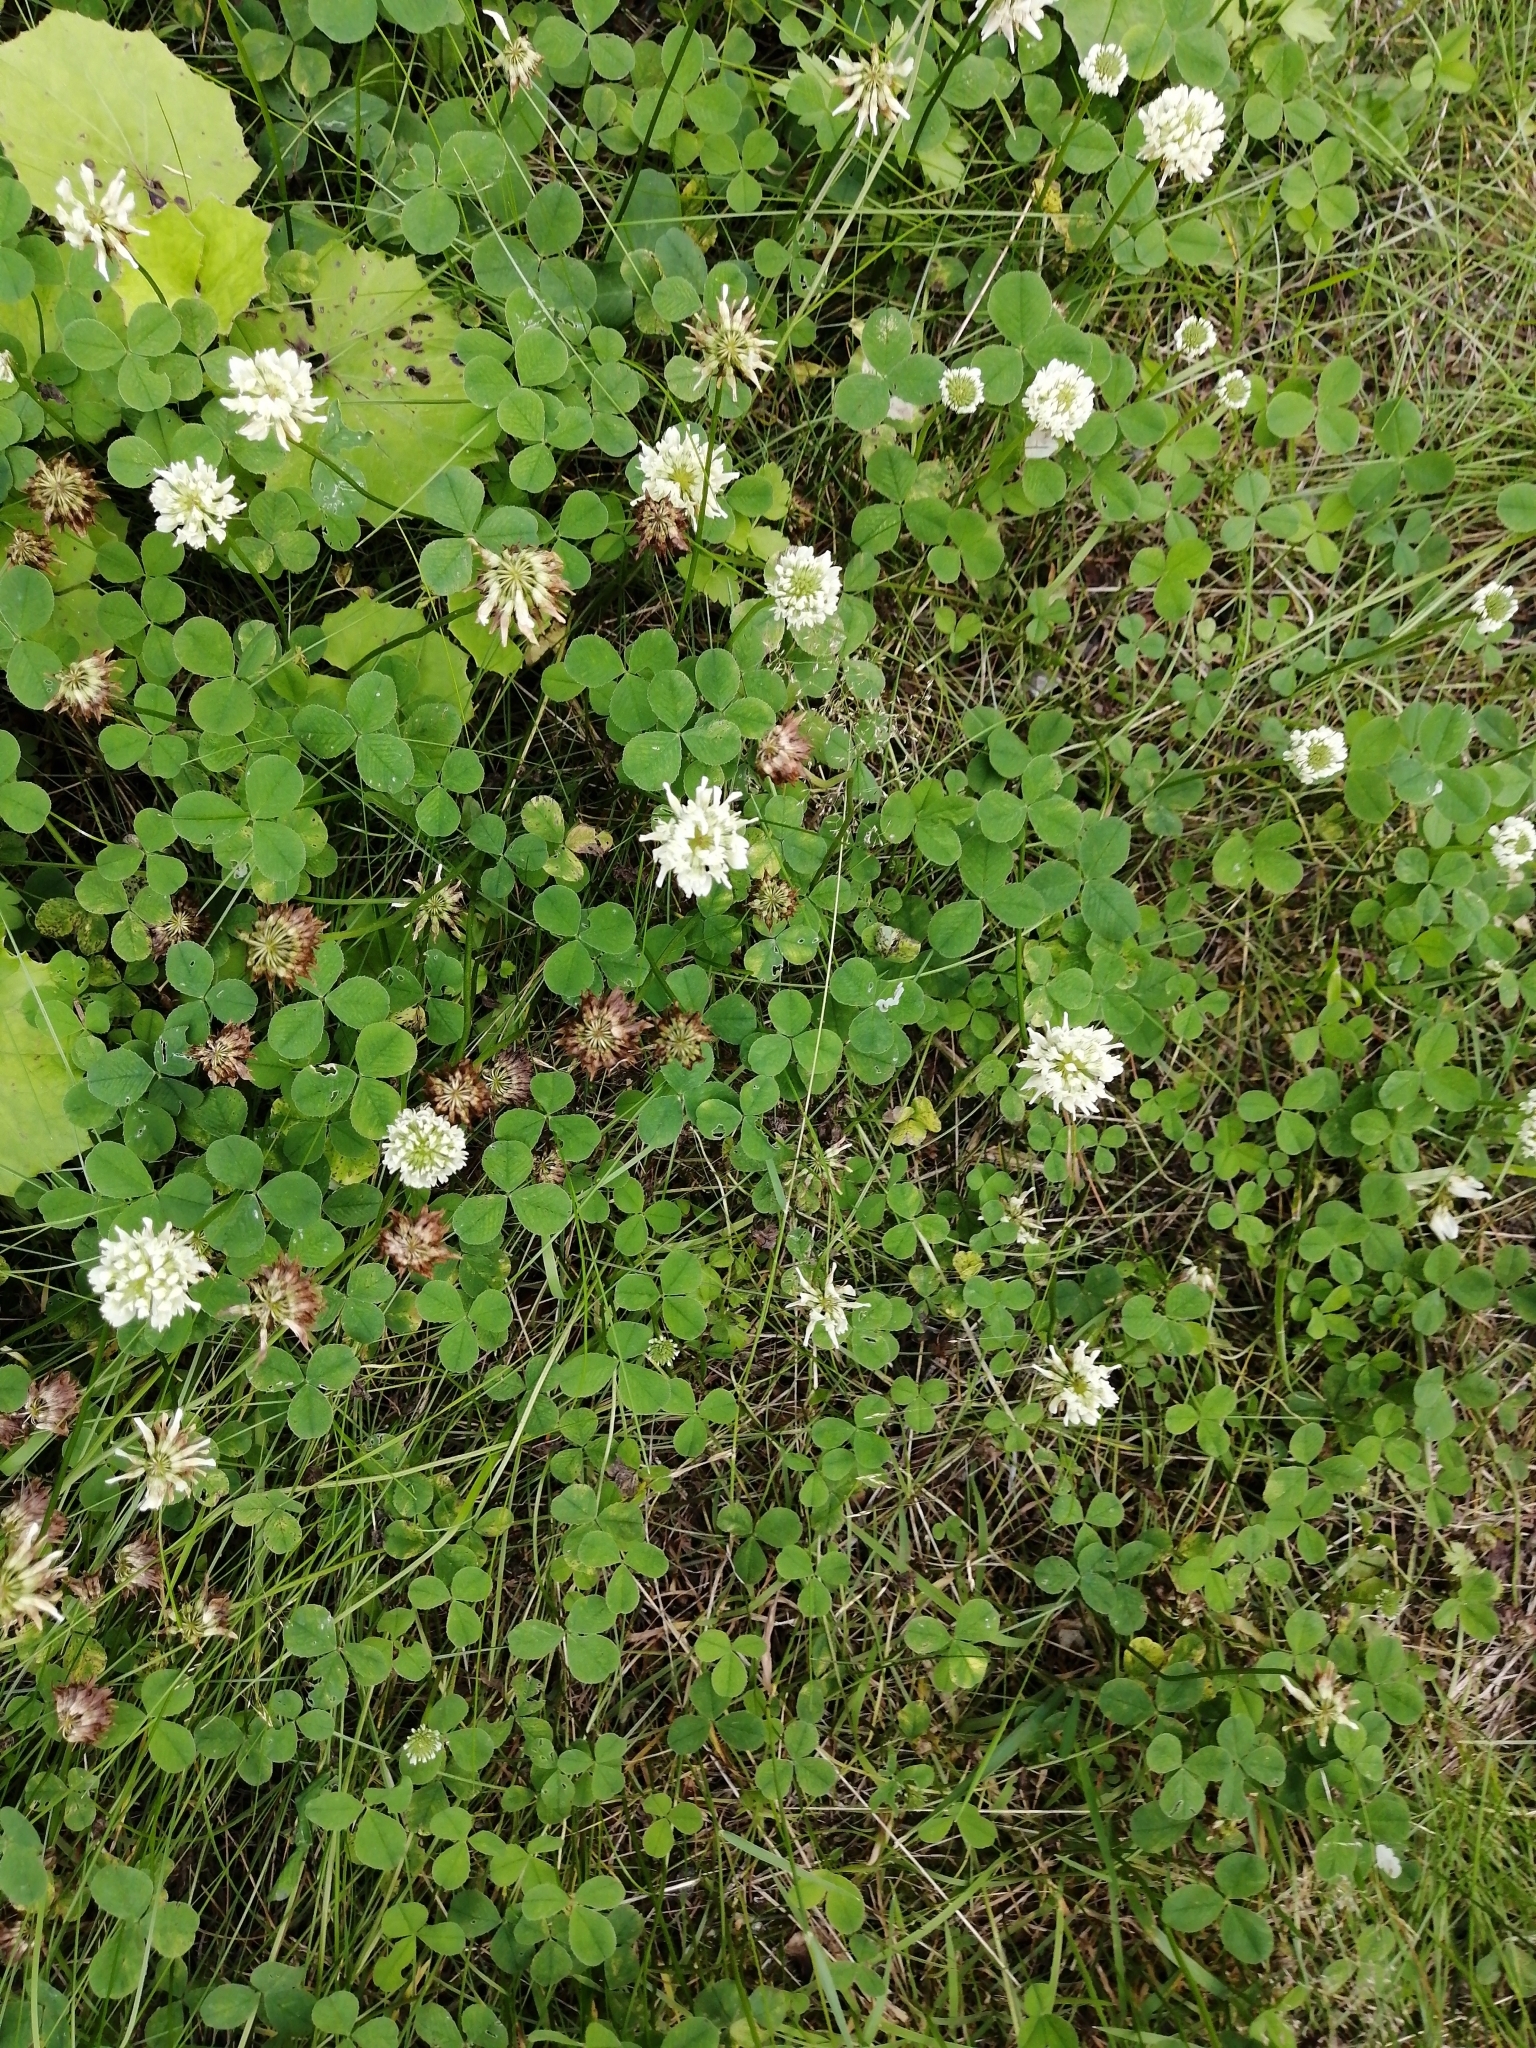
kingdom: Plantae
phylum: Tracheophyta
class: Magnoliopsida
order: Fabales
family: Fabaceae
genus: Trifolium
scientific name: Trifolium repens
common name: White clover
